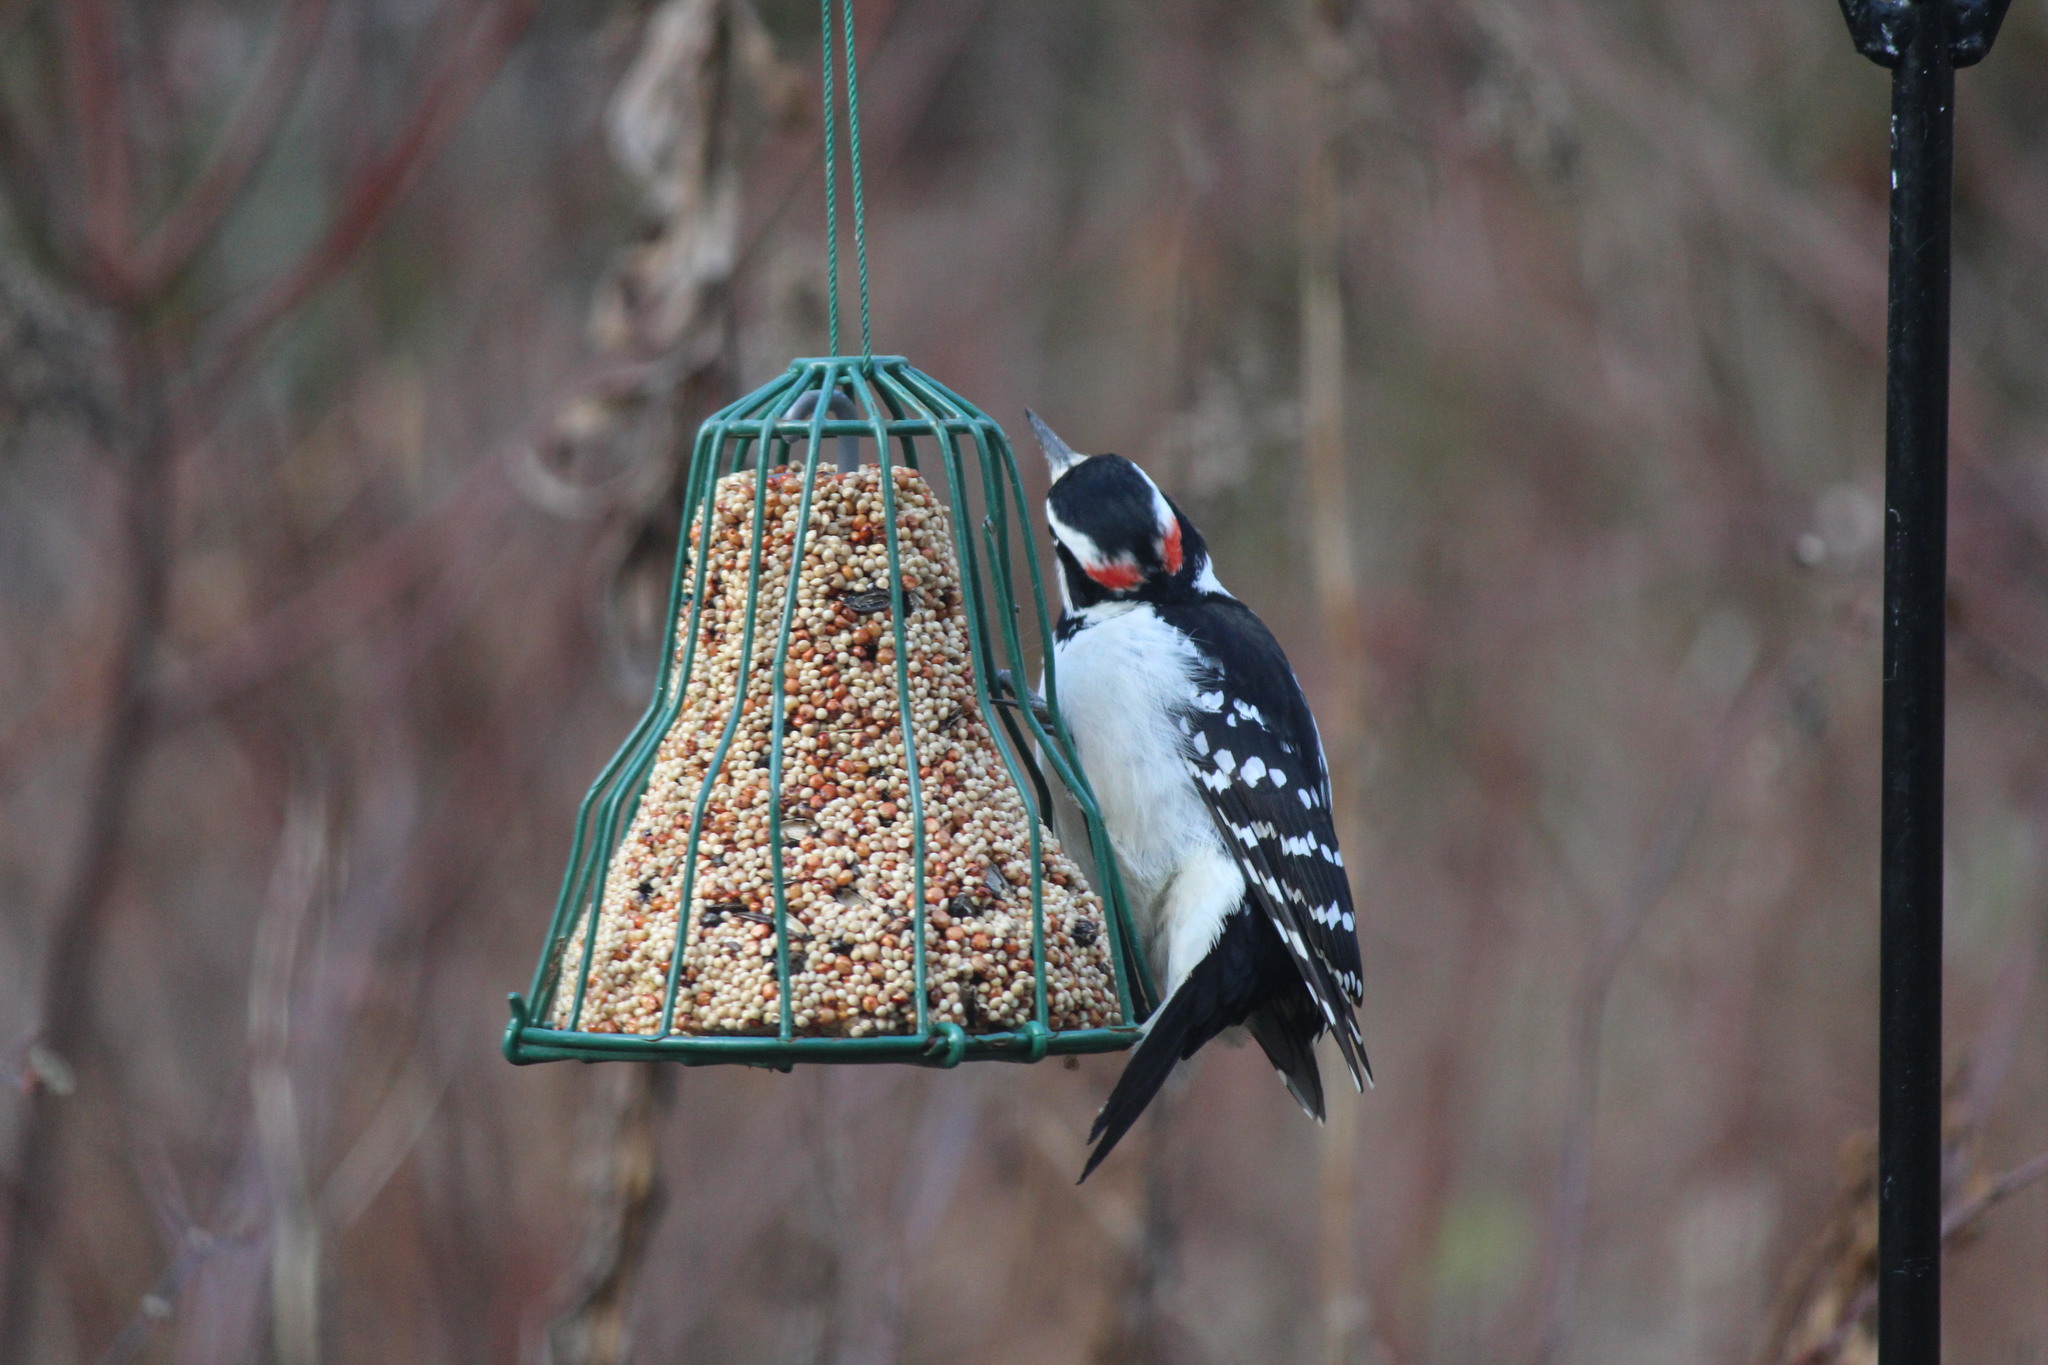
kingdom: Animalia
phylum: Chordata
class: Aves
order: Piciformes
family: Picidae
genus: Leuconotopicus
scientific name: Leuconotopicus villosus
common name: Hairy woodpecker
